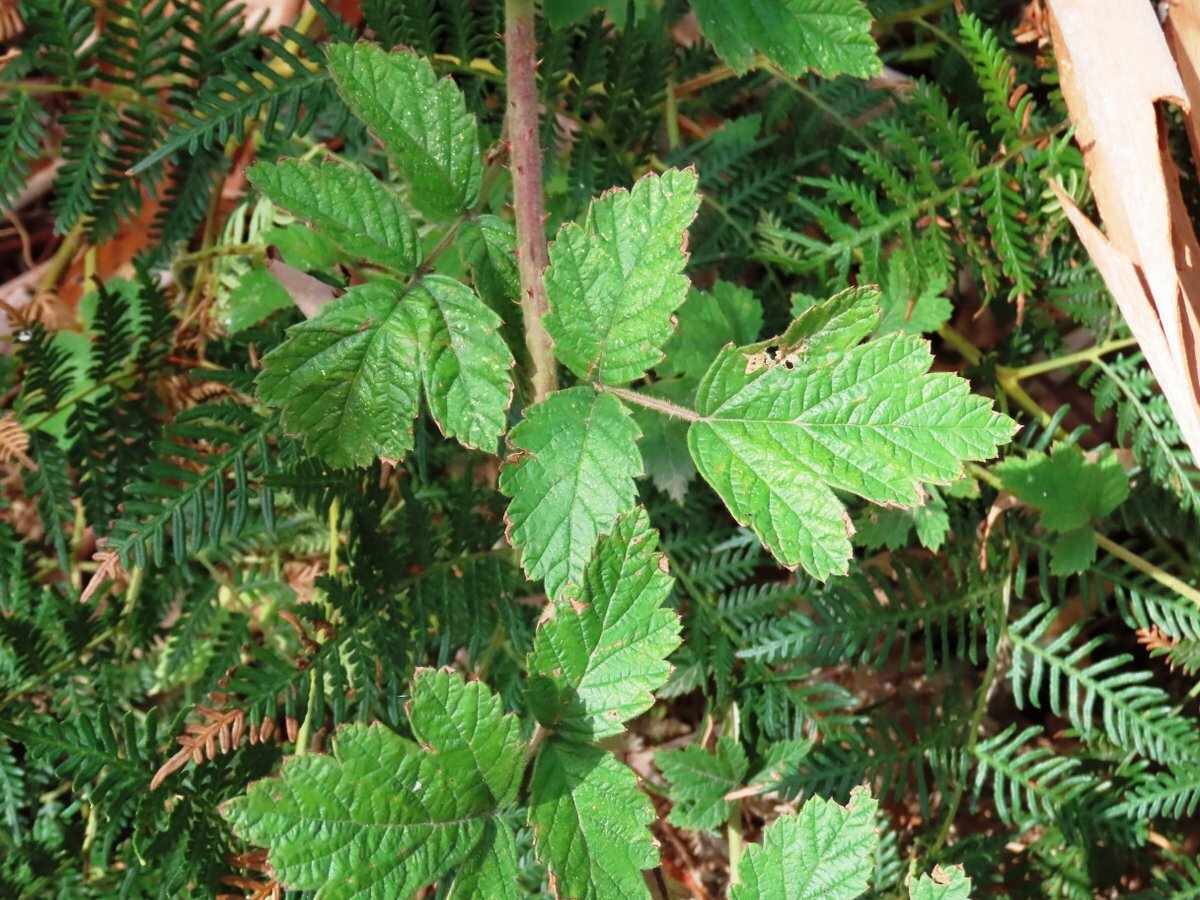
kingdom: Plantae
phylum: Tracheophyta
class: Magnoliopsida
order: Rosales
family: Rosaceae
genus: Rubus
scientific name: Rubus parvifolius
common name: Threeleaf blackberry
